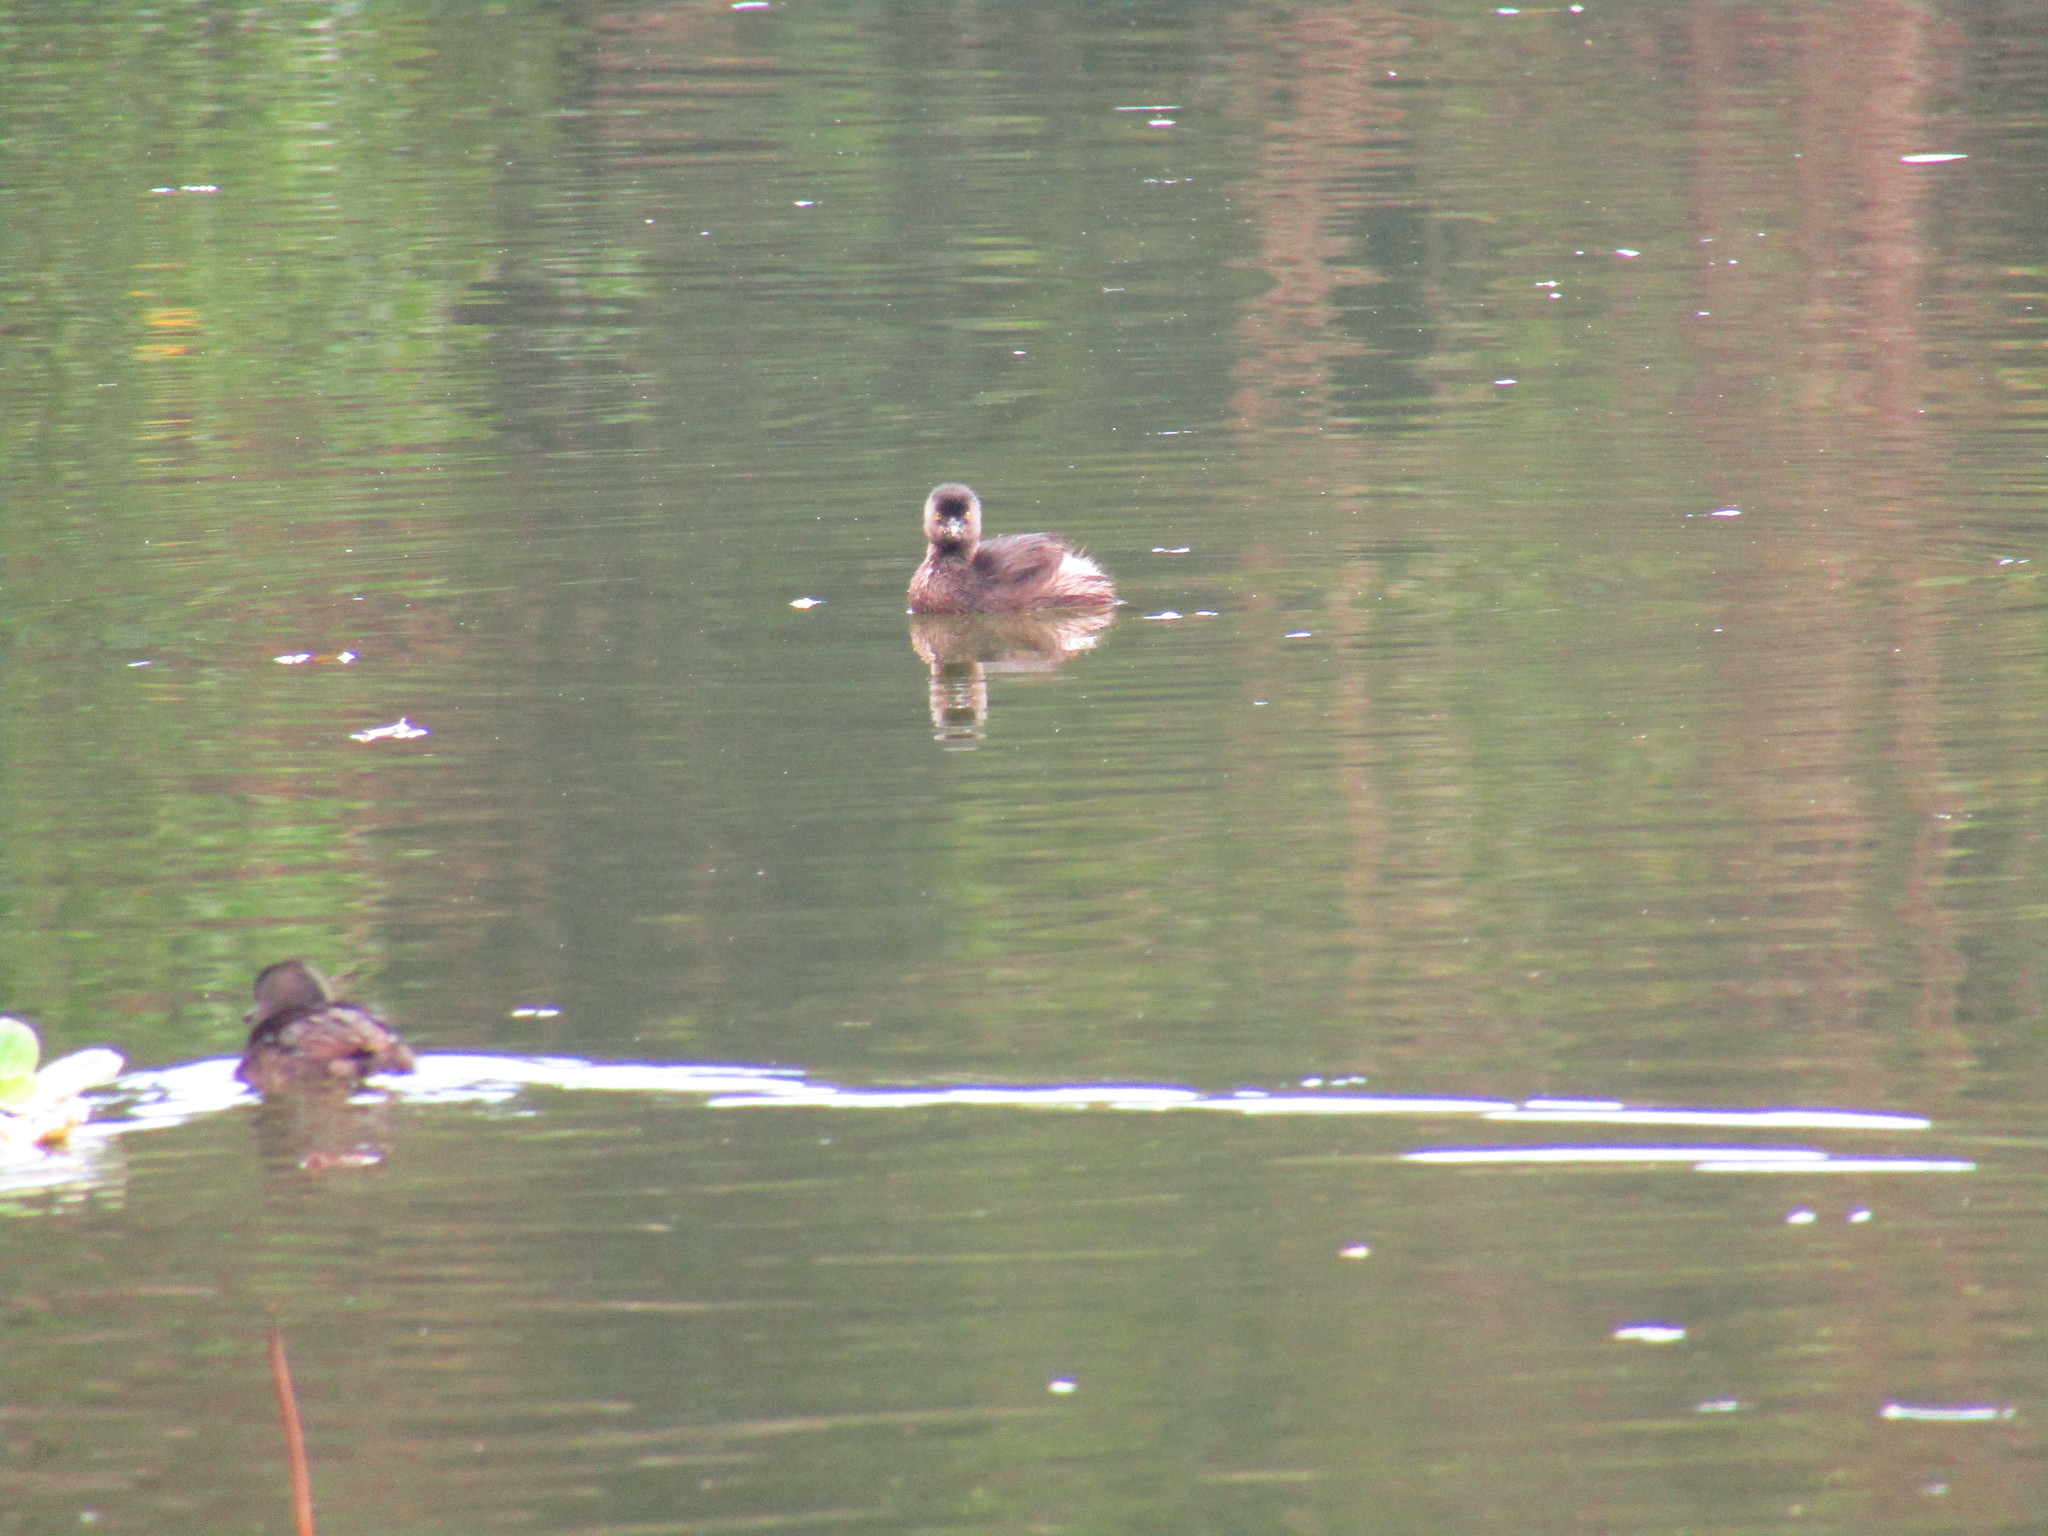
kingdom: Animalia
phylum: Chordata
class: Aves
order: Podicipediformes
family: Podicipedidae
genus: Podilymbus
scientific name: Podilymbus podiceps
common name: Pied-billed grebe
